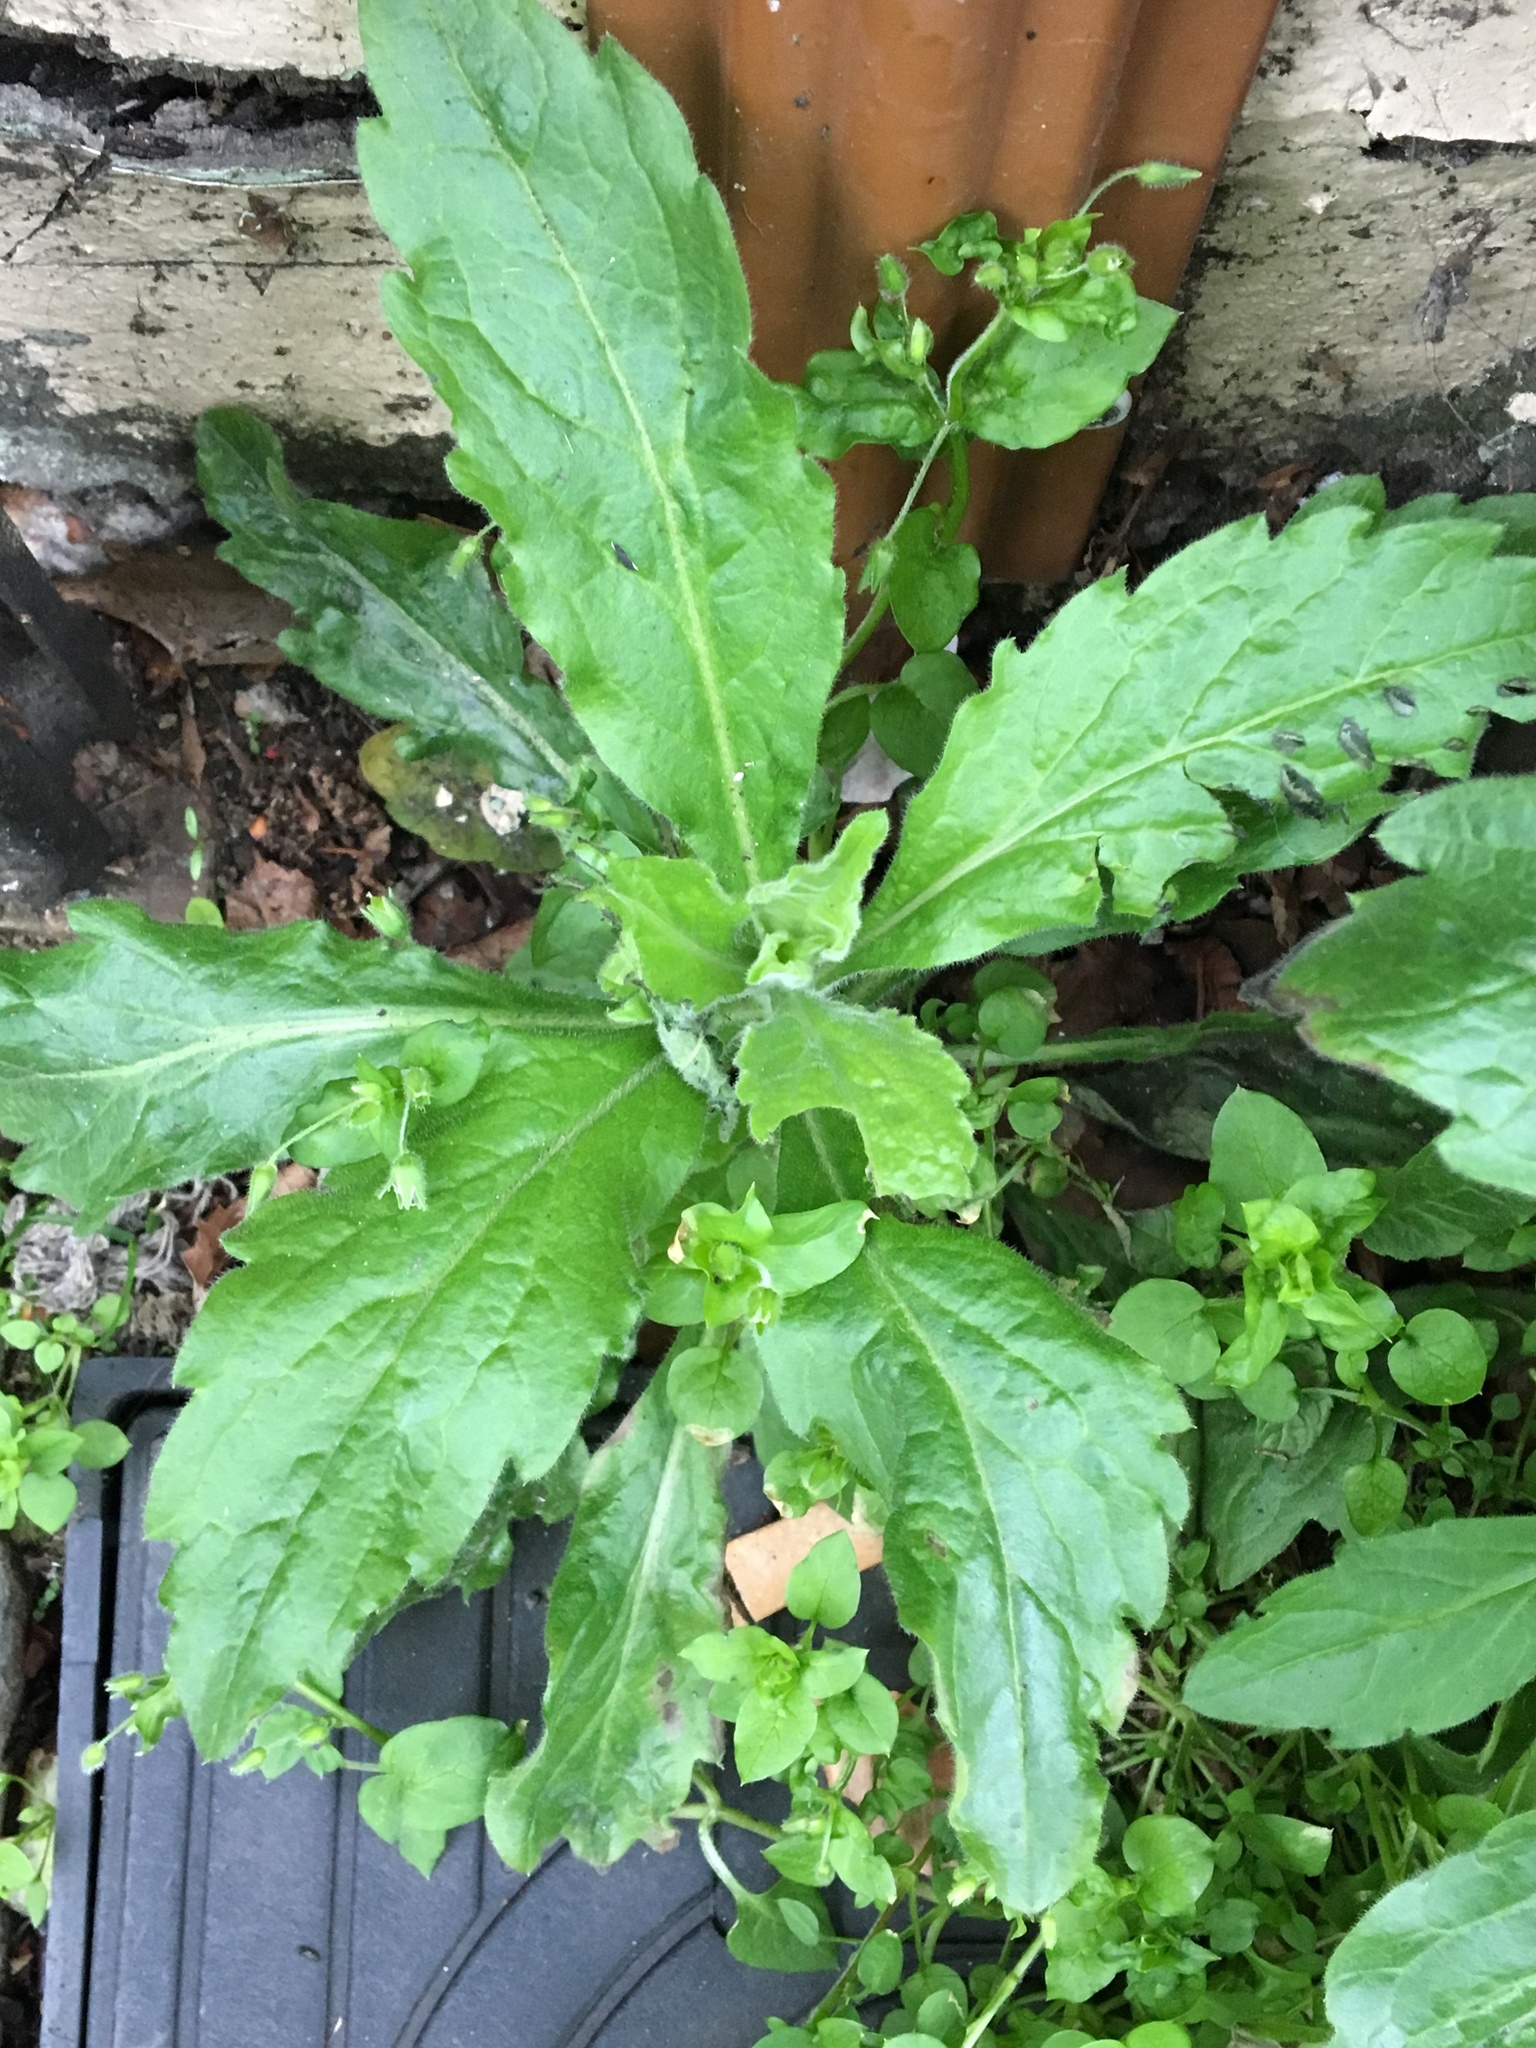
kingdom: Plantae
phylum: Tracheophyta
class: Magnoliopsida
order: Asterales
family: Asteraceae
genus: Erigeron
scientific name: Erigeron sumatrensis
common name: Daisy
